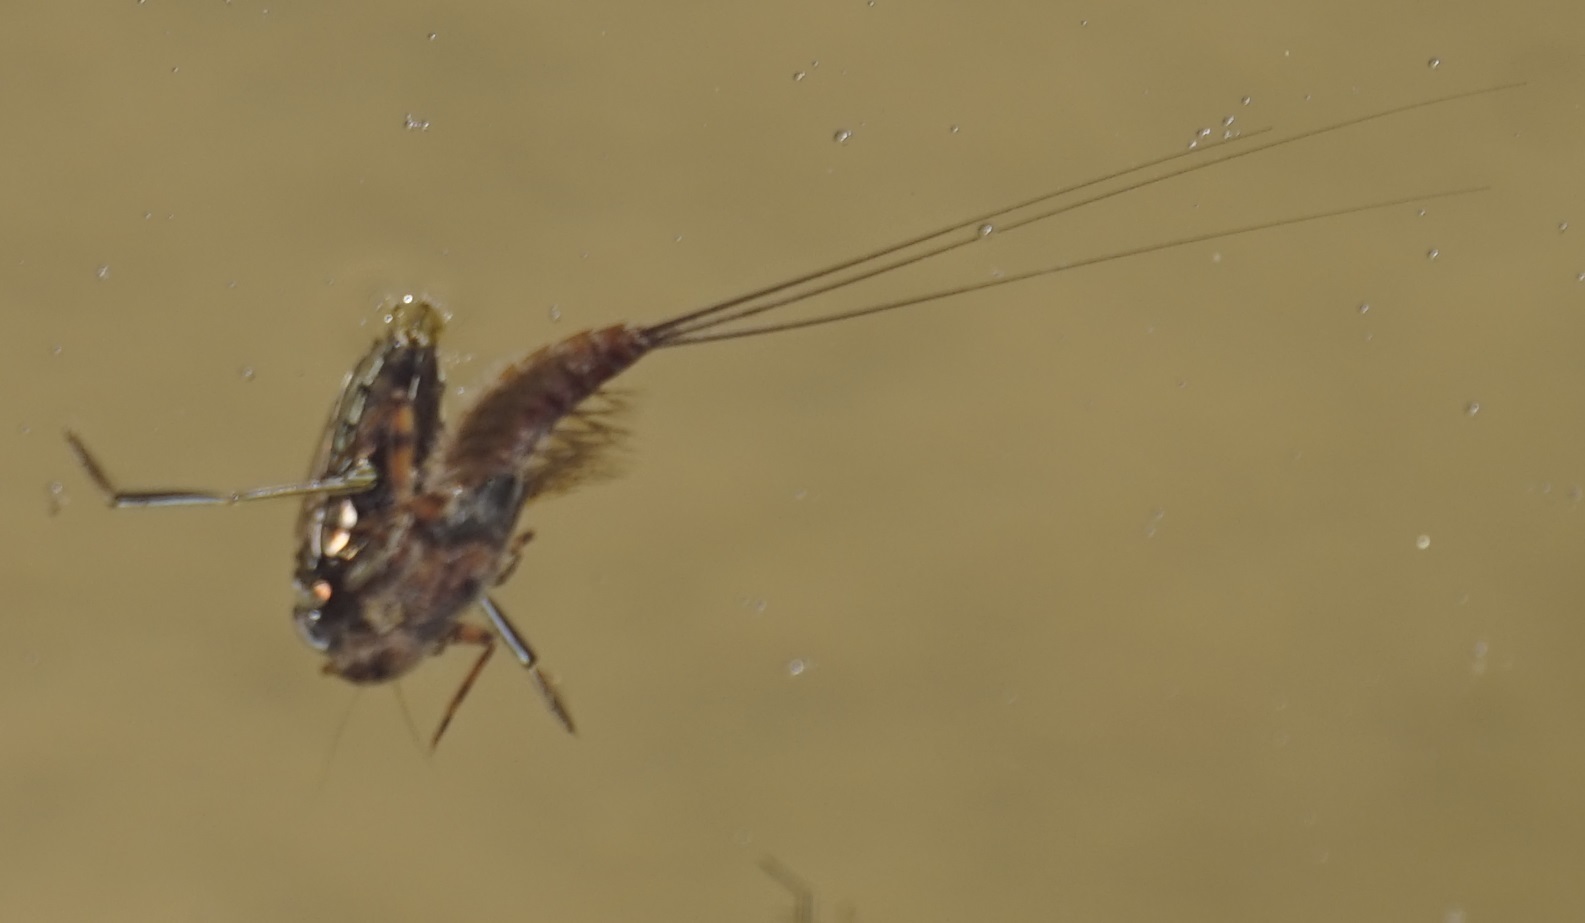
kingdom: Animalia
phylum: Arthropoda
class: Insecta
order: Hemiptera
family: Notonectidae
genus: Enithares
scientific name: Enithares
